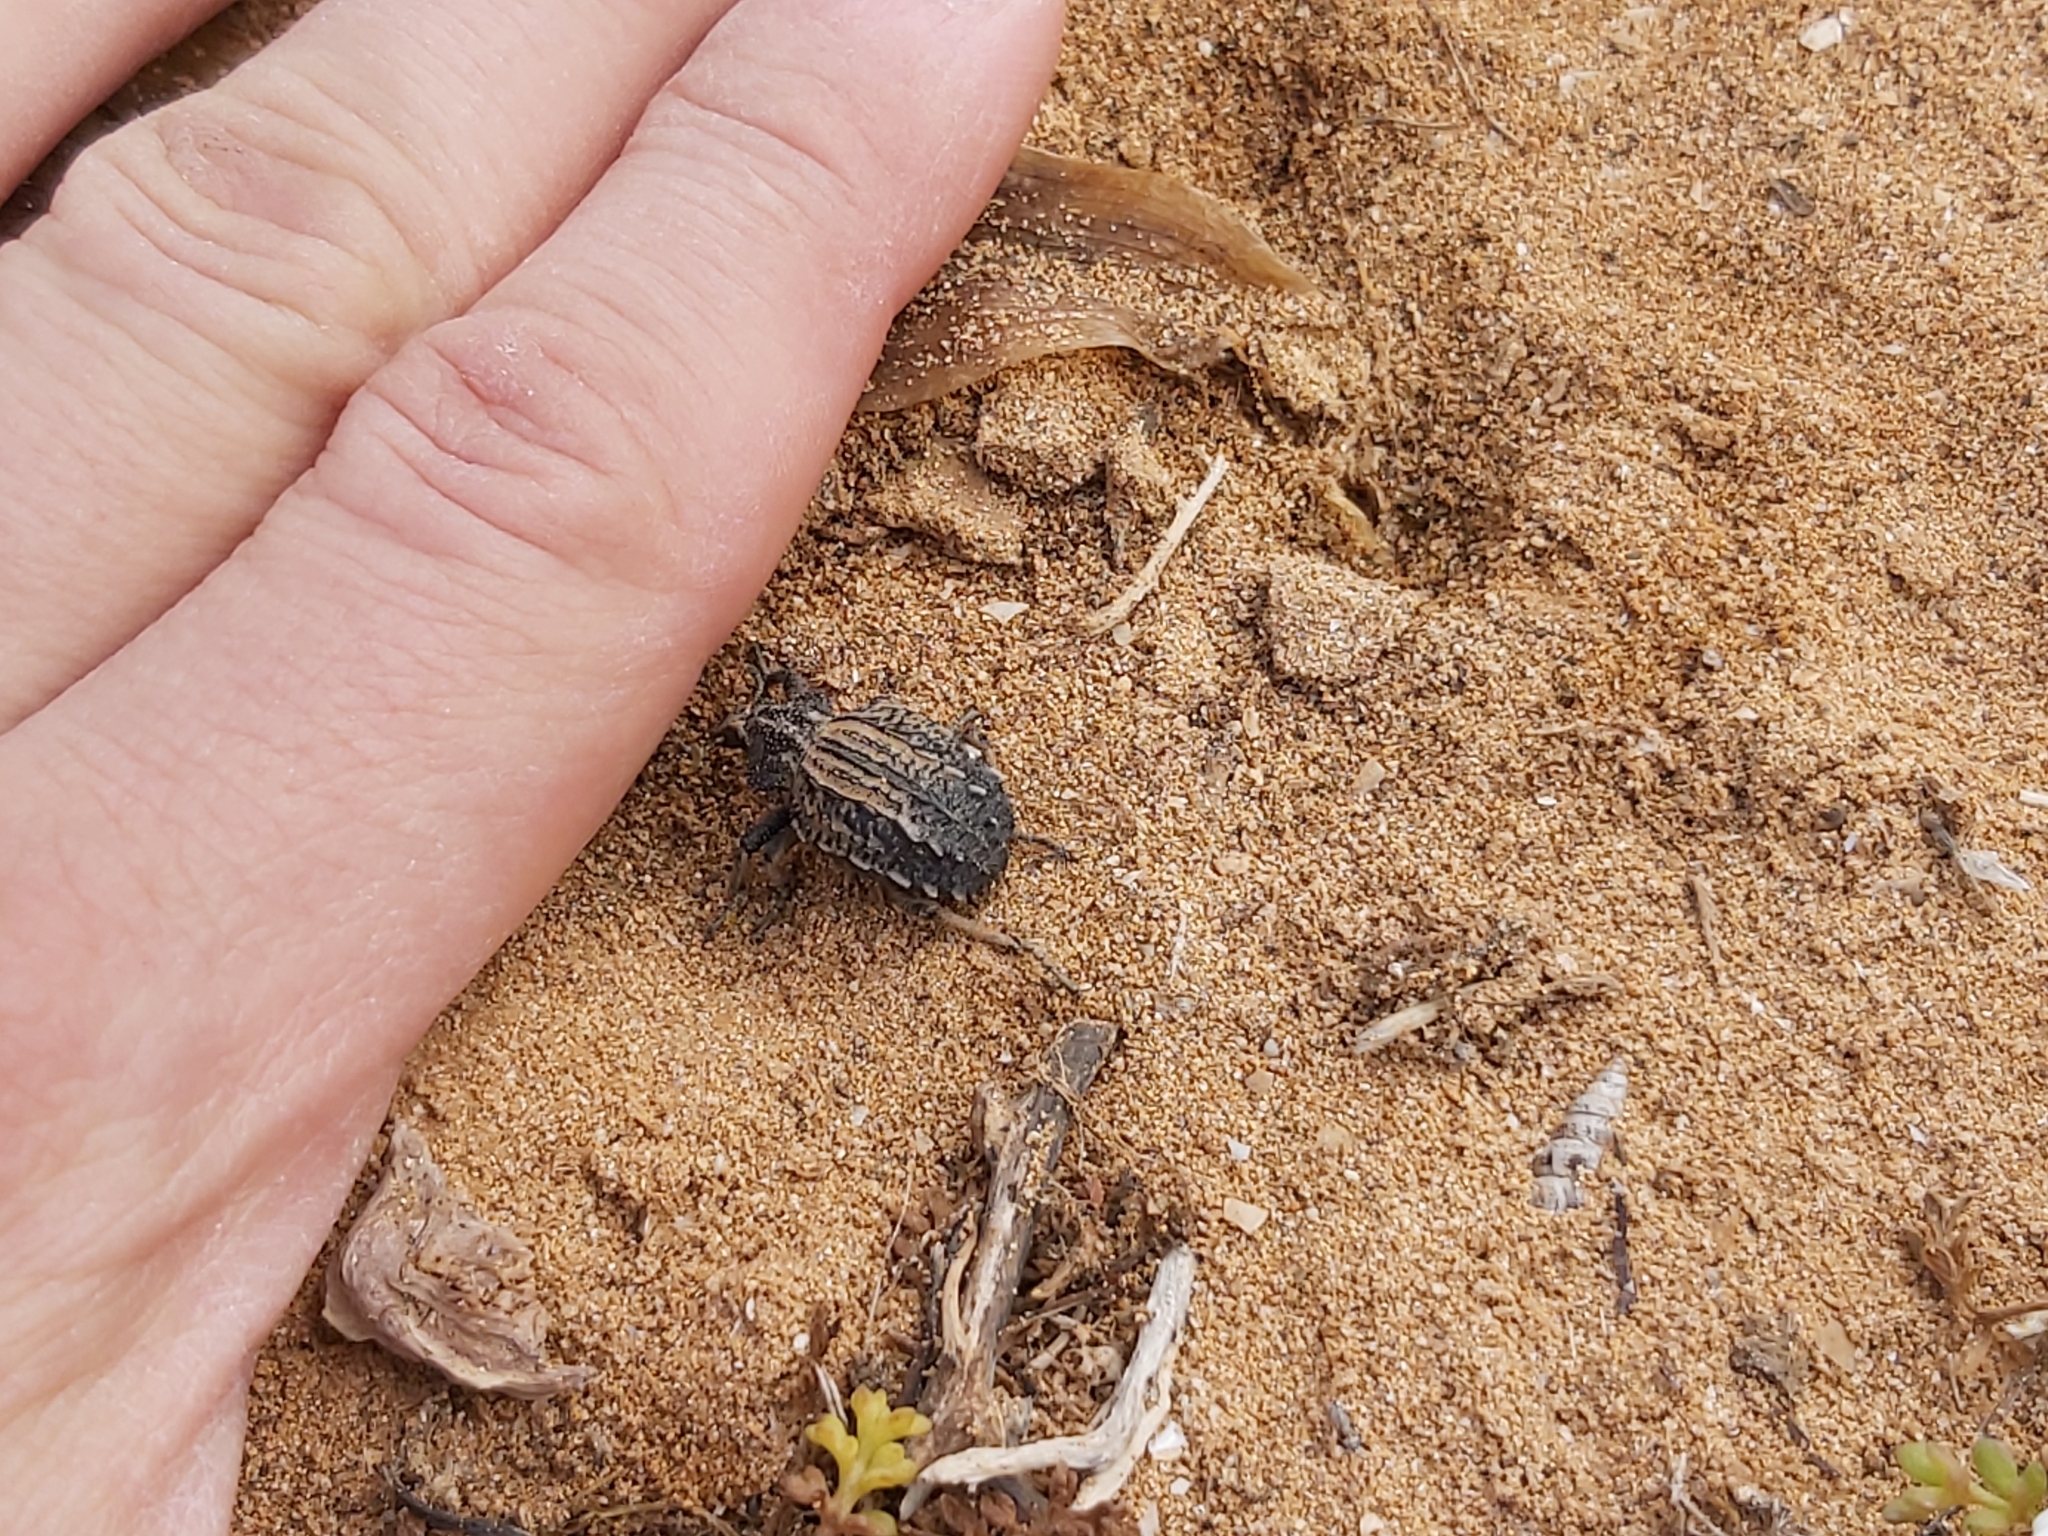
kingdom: Animalia
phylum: Arthropoda
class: Insecta
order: Coleoptera
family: Brachyceridae
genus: Brachycerus
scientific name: Brachycerus undatus
